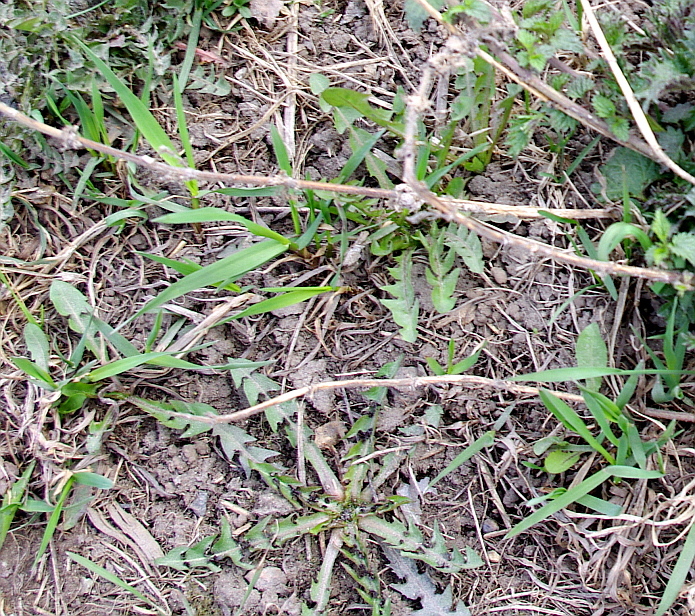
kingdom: Plantae
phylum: Tracheophyta
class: Magnoliopsida
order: Asterales
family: Asteraceae
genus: Taraxacum
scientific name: Taraxacum officinale
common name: Common dandelion
